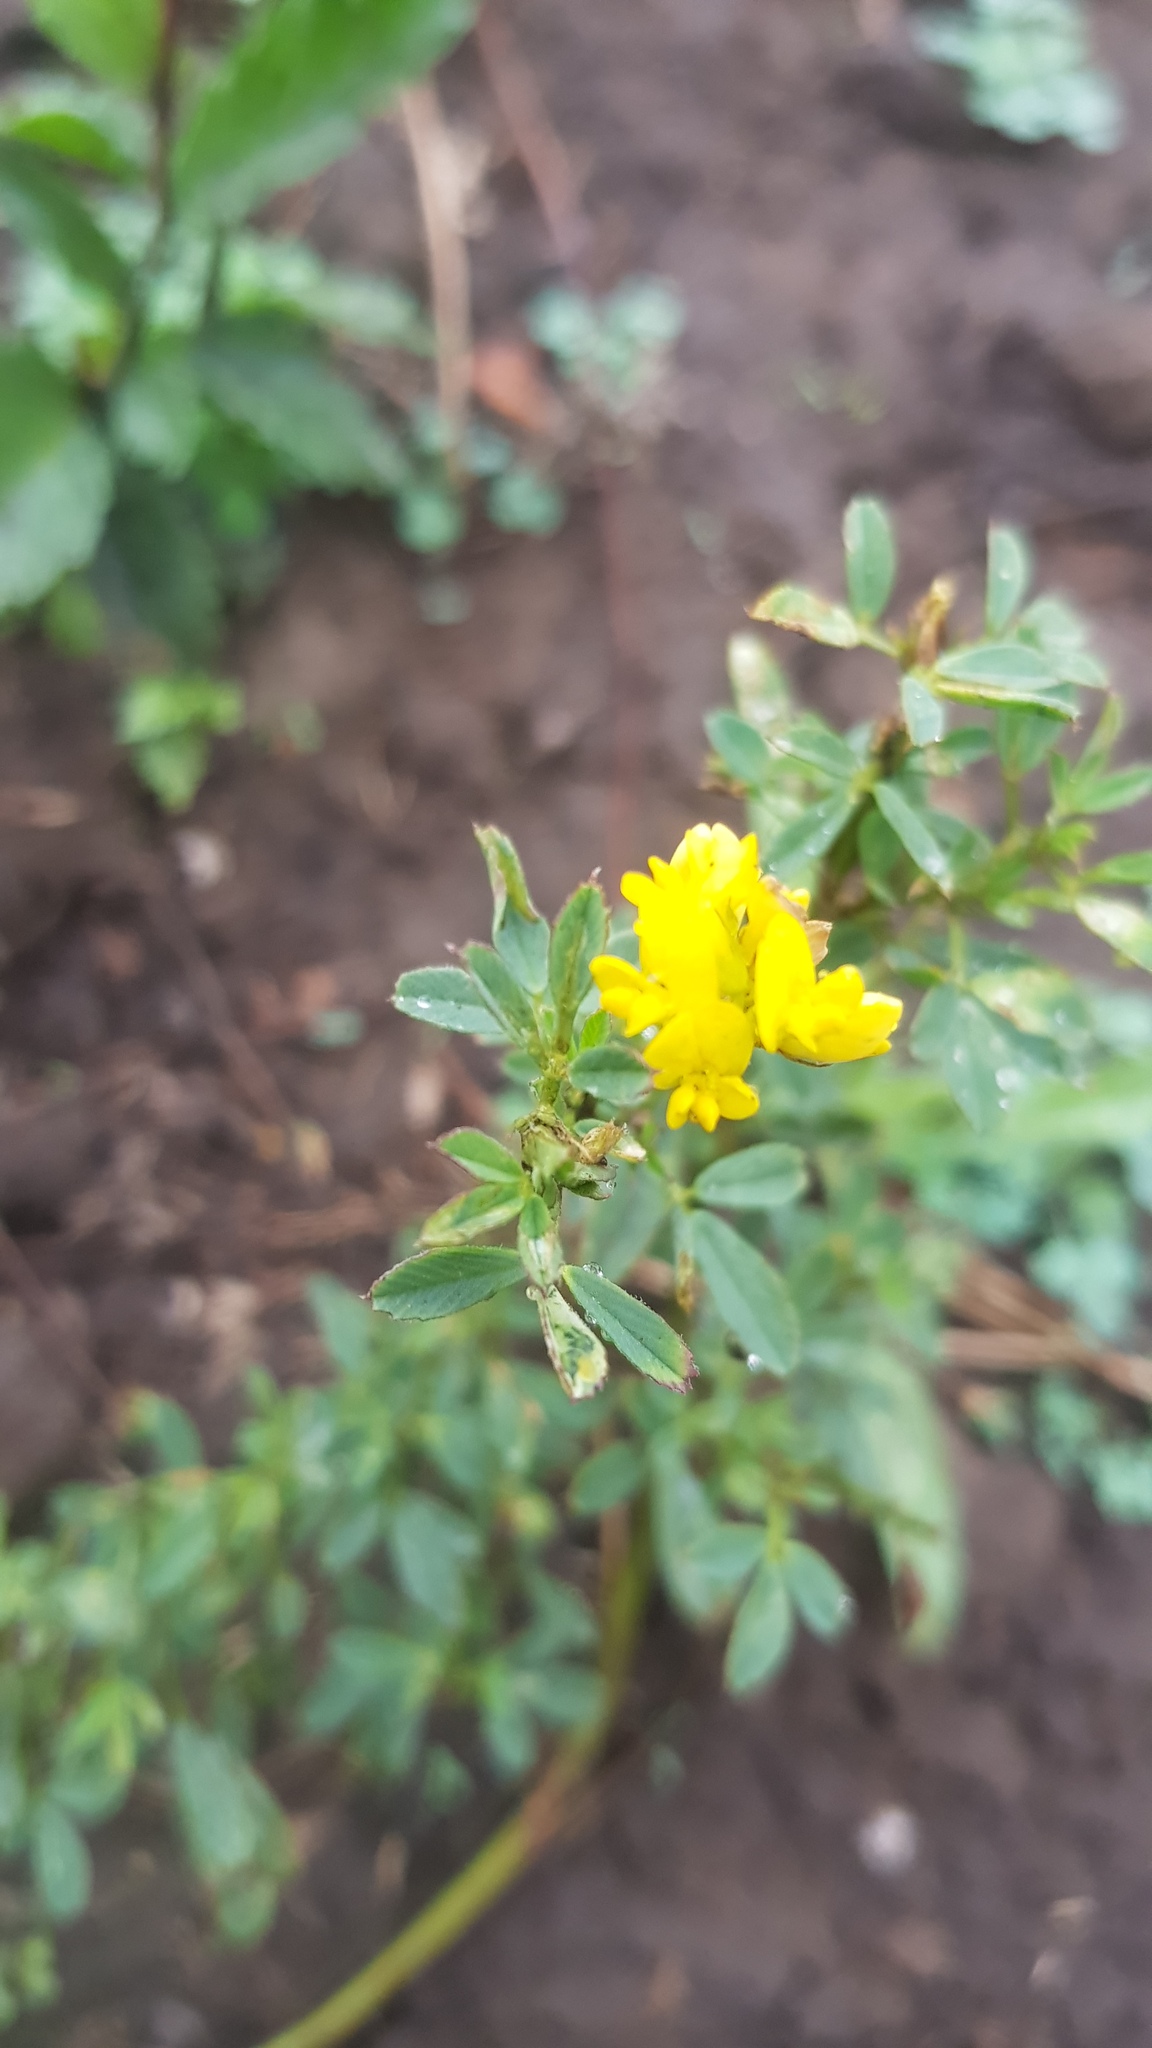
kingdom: Plantae
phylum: Tracheophyta
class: Magnoliopsida
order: Fabales
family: Fabaceae
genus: Medicago
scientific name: Medicago falcata
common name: Sickle medick
